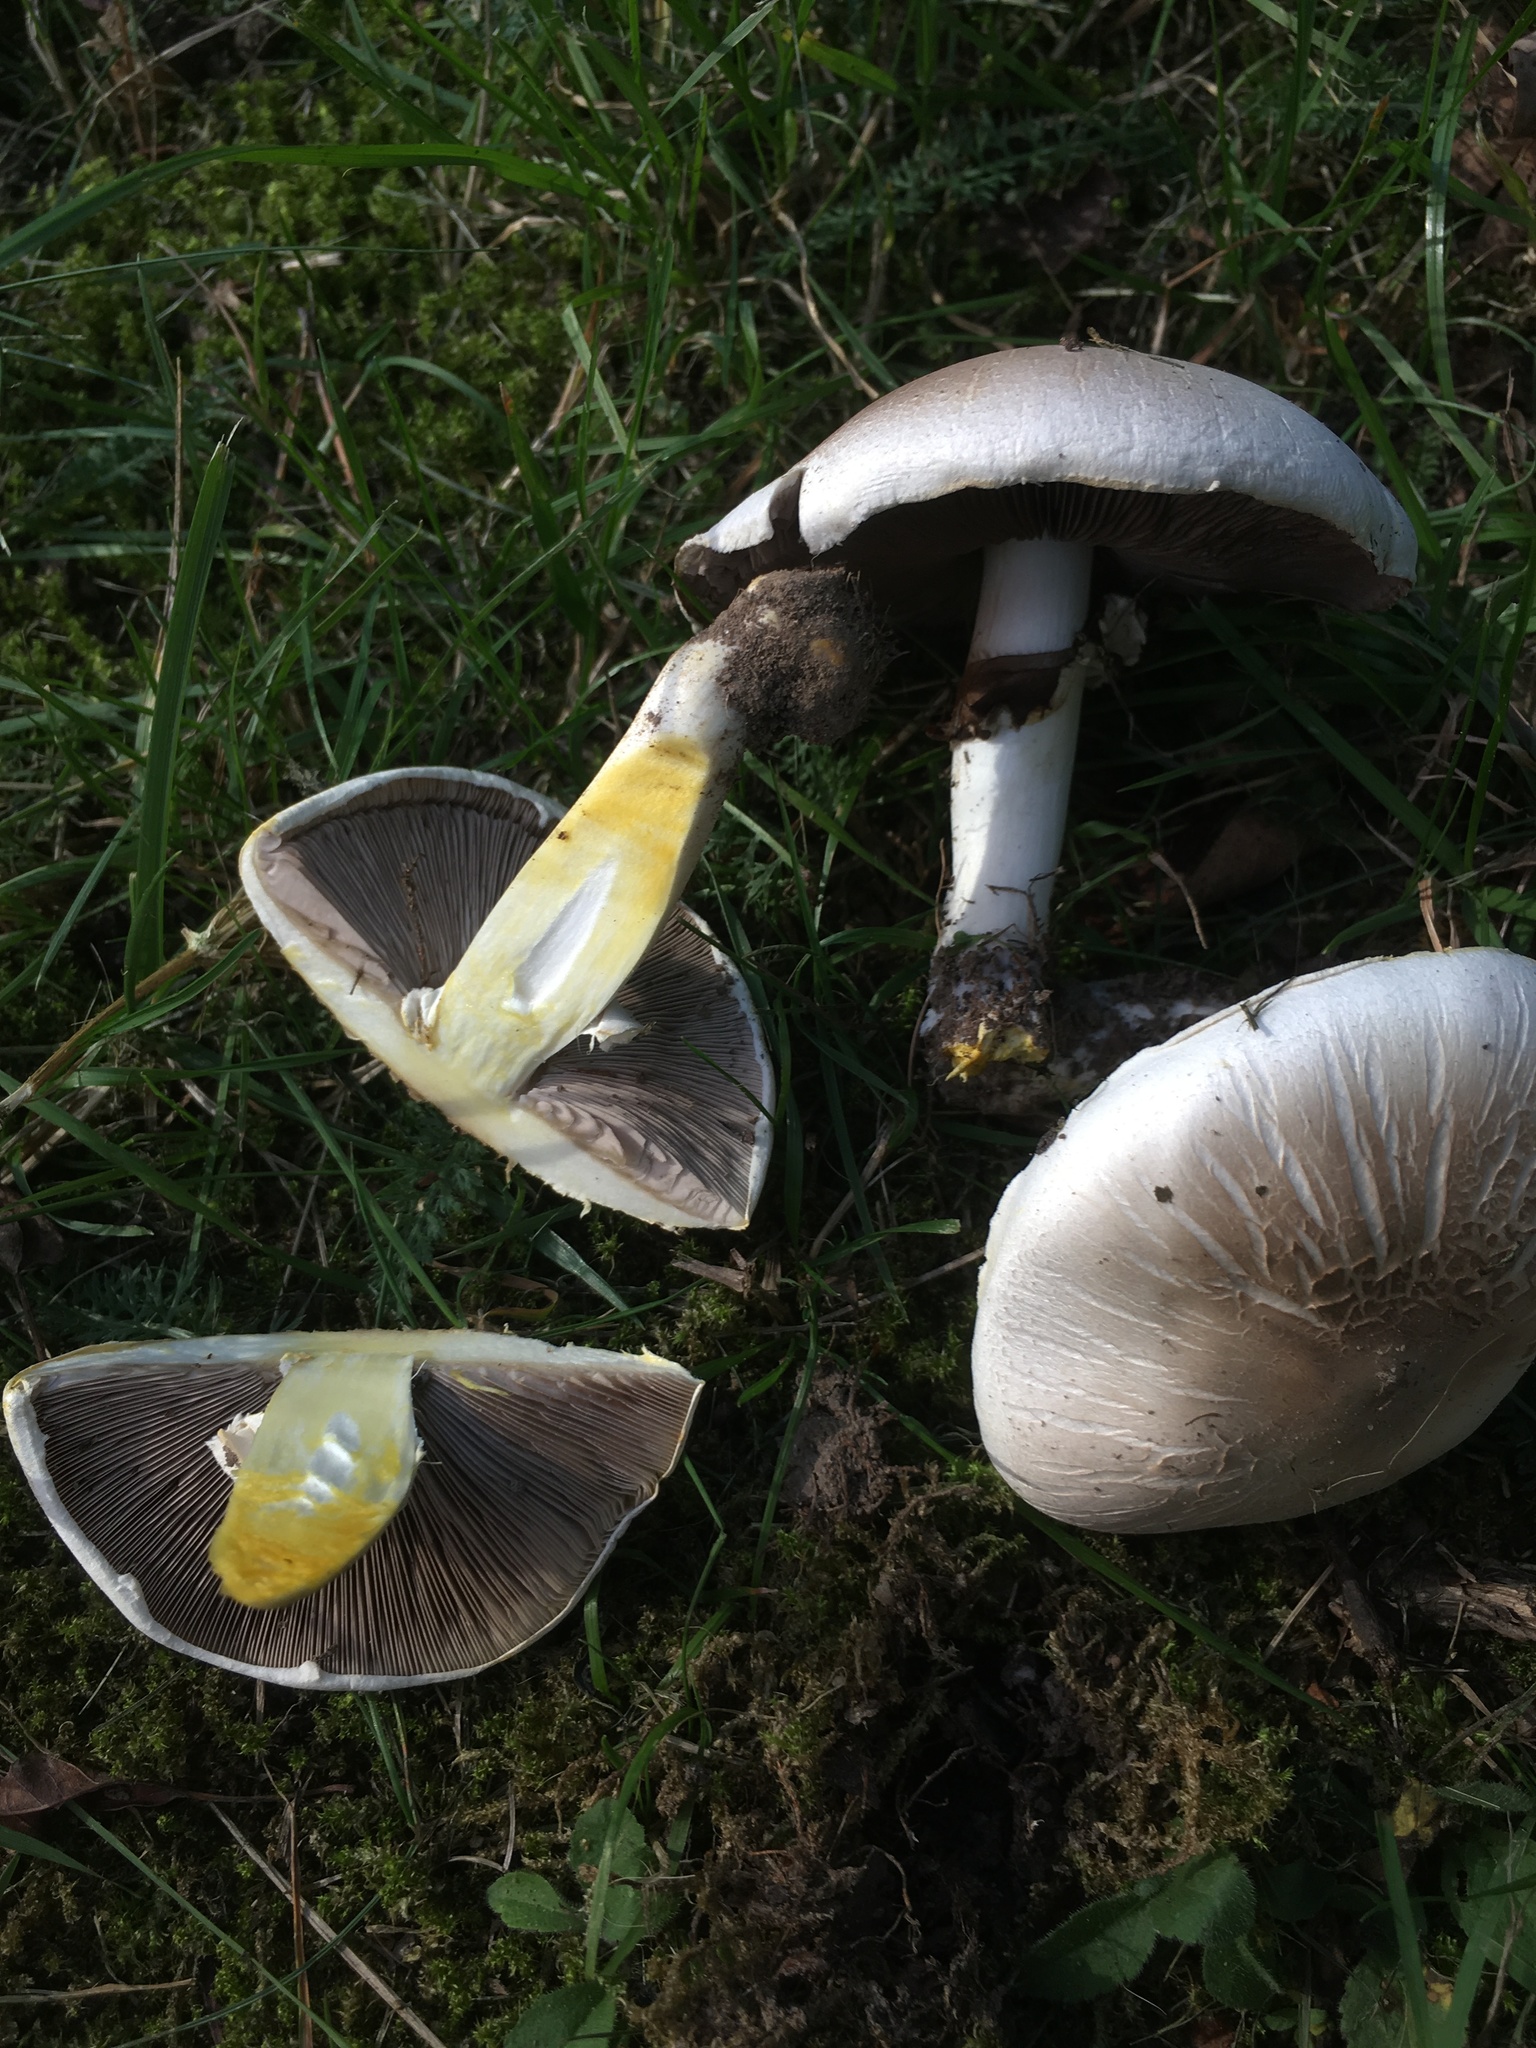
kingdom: Fungi
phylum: Basidiomycota
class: Agaricomycetes
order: Agaricales
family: Agaricaceae
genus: Agaricus
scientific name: Agaricus xanthodermus
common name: Yellow stainer
